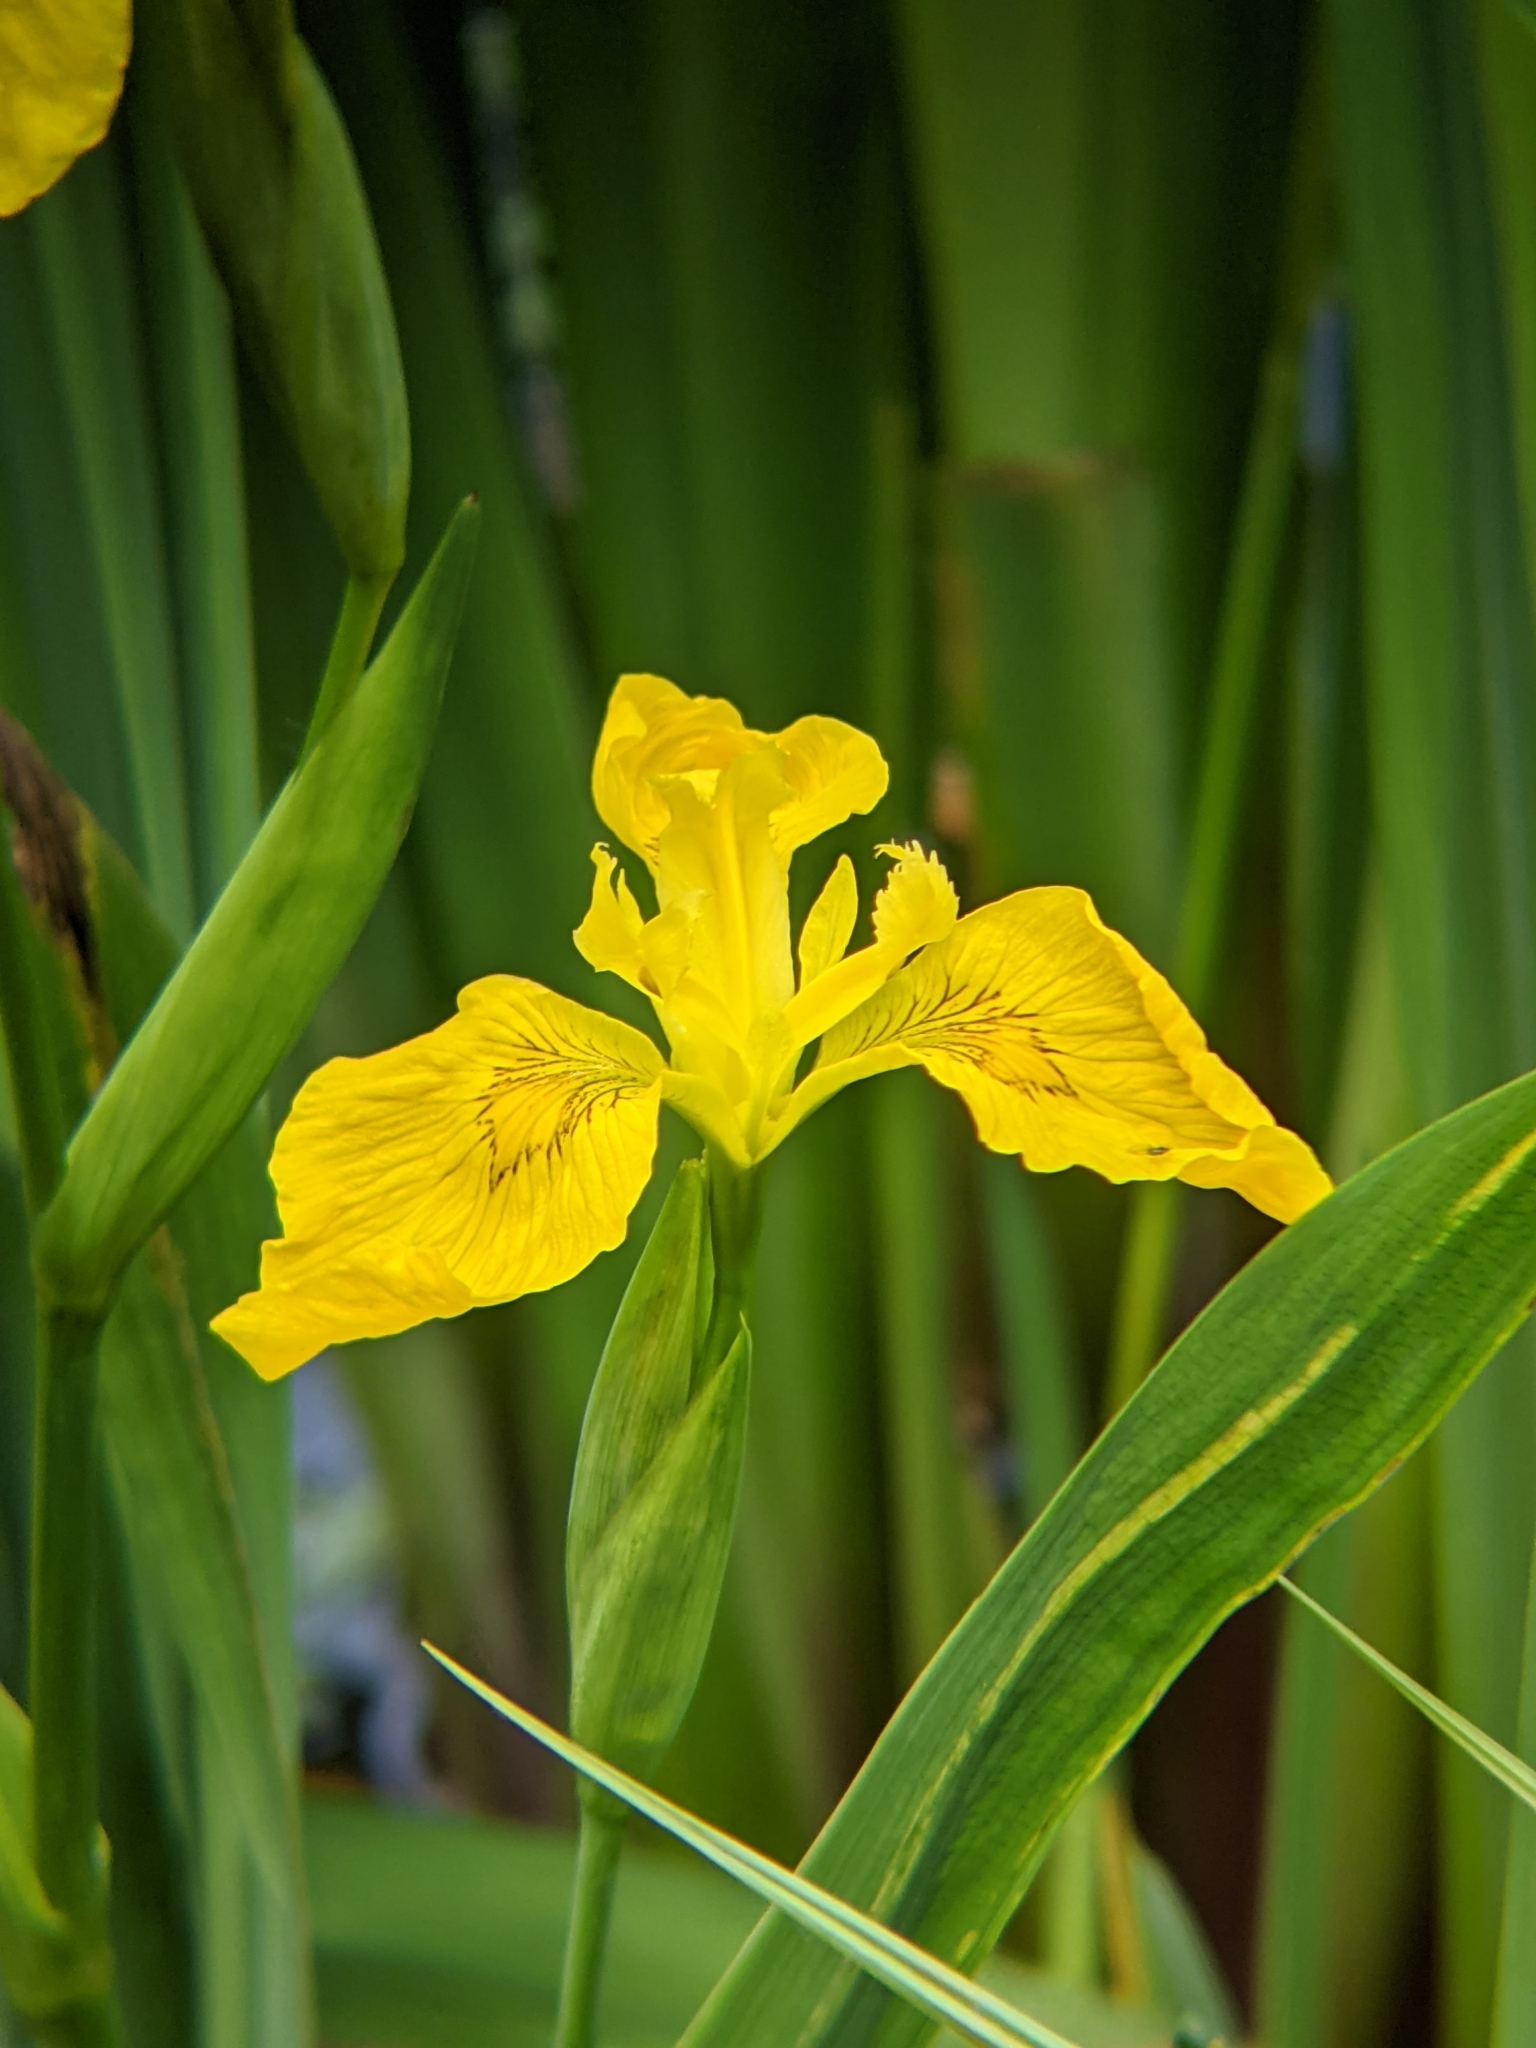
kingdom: Plantae
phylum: Tracheophyta
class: Liliopsida
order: Asparagales
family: Iridaceae
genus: Iris
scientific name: Iris pseudacorus
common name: Yellow flag
